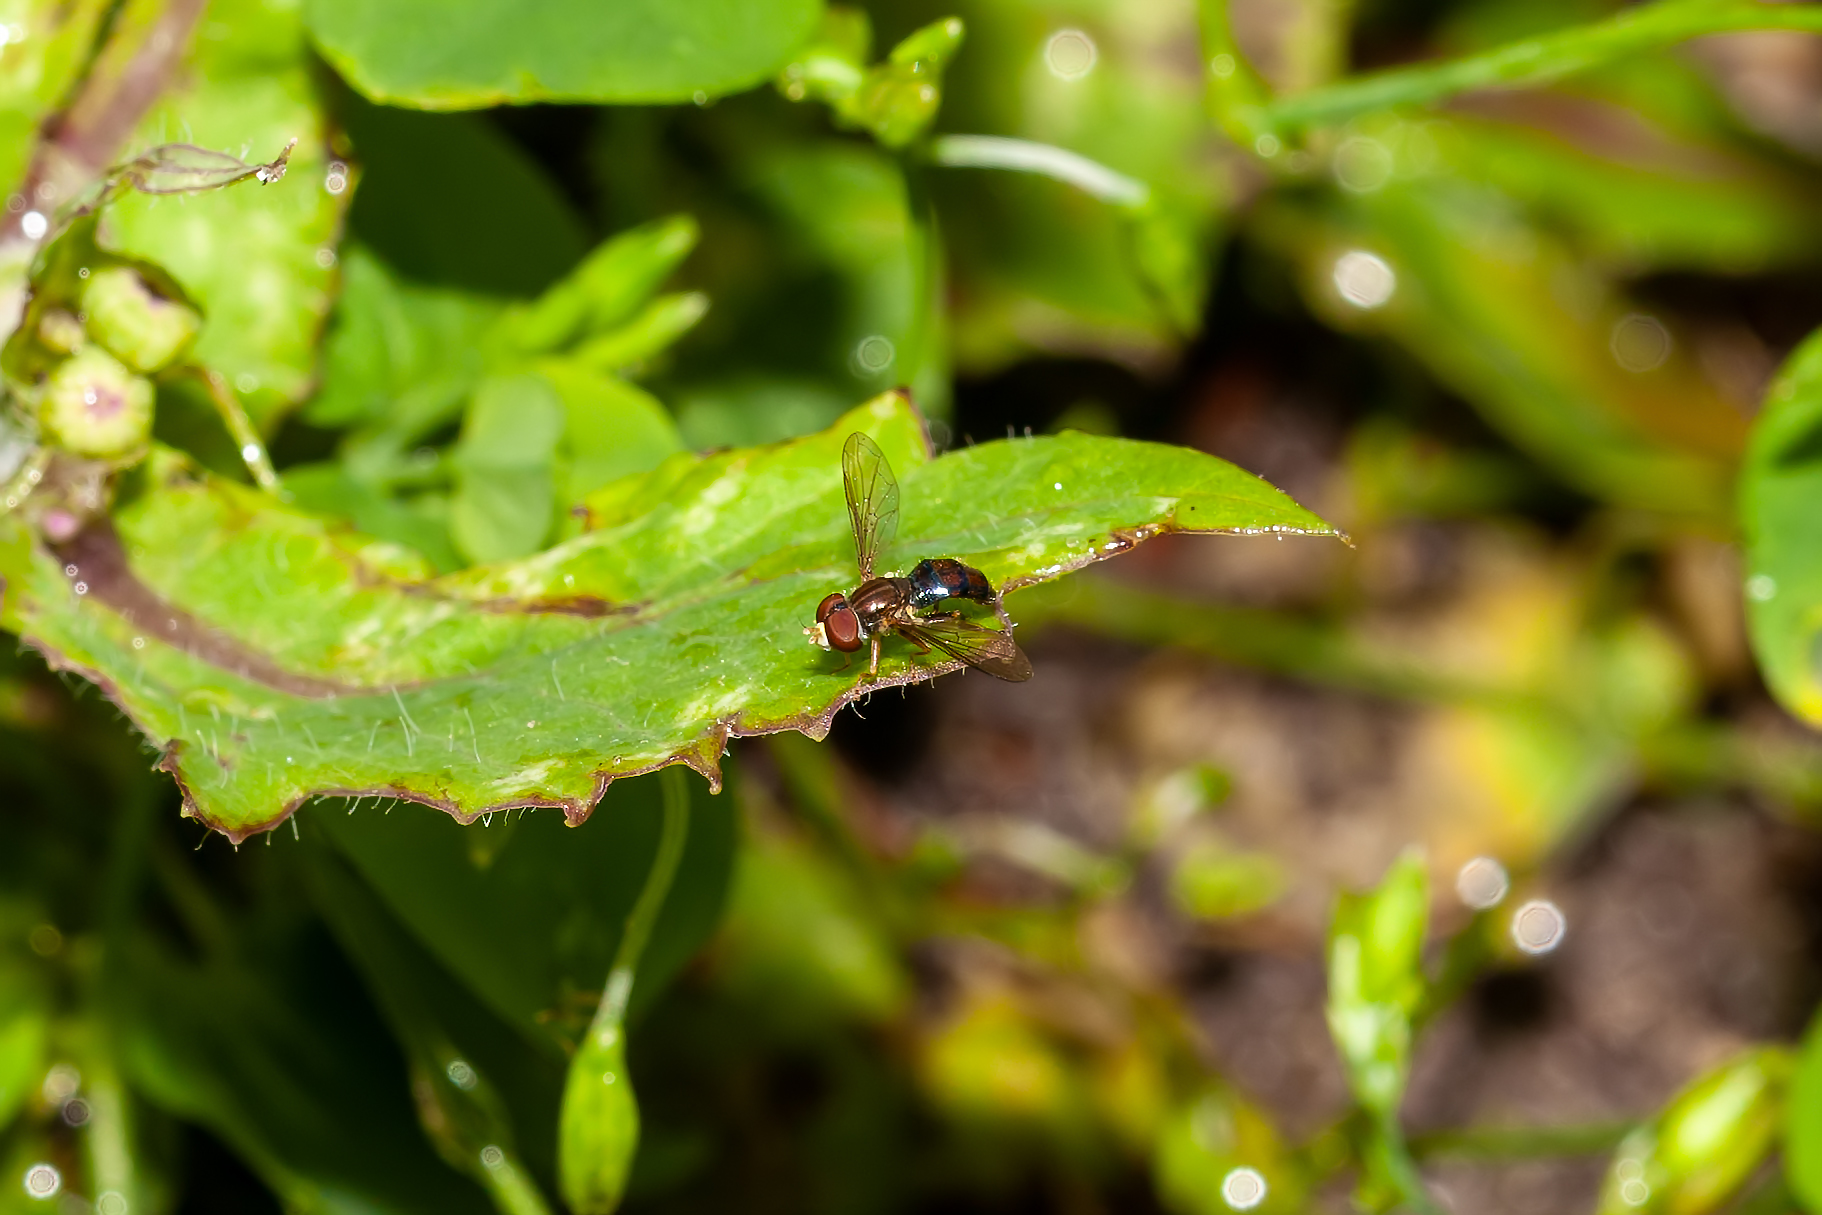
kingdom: Animalia
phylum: Arthropoda
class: Insecta
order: Diptera
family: Syrphidae
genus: Toxomerus
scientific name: Toxomerus boscii
